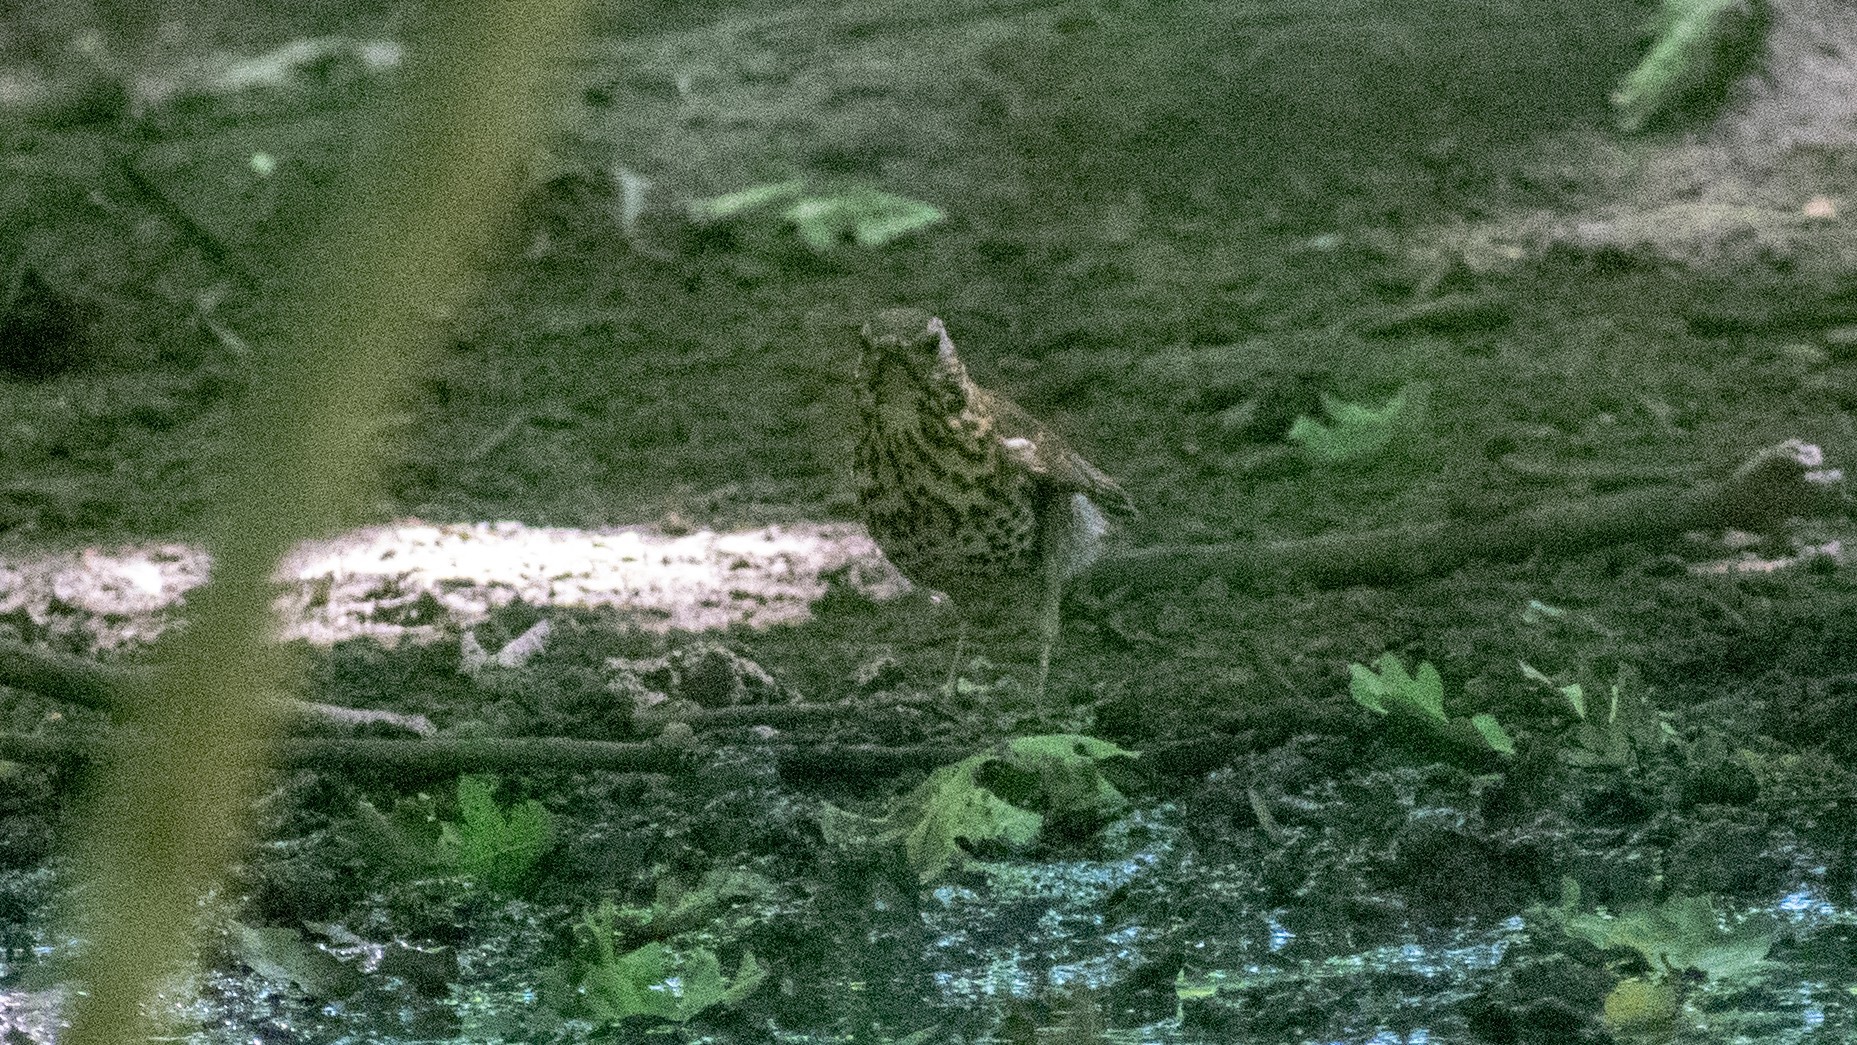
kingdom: Animalia
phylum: Chordata
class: Aves
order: Passeriformes
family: Turdidae
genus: Turdus
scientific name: Turdus philomelos
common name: Song thrush
